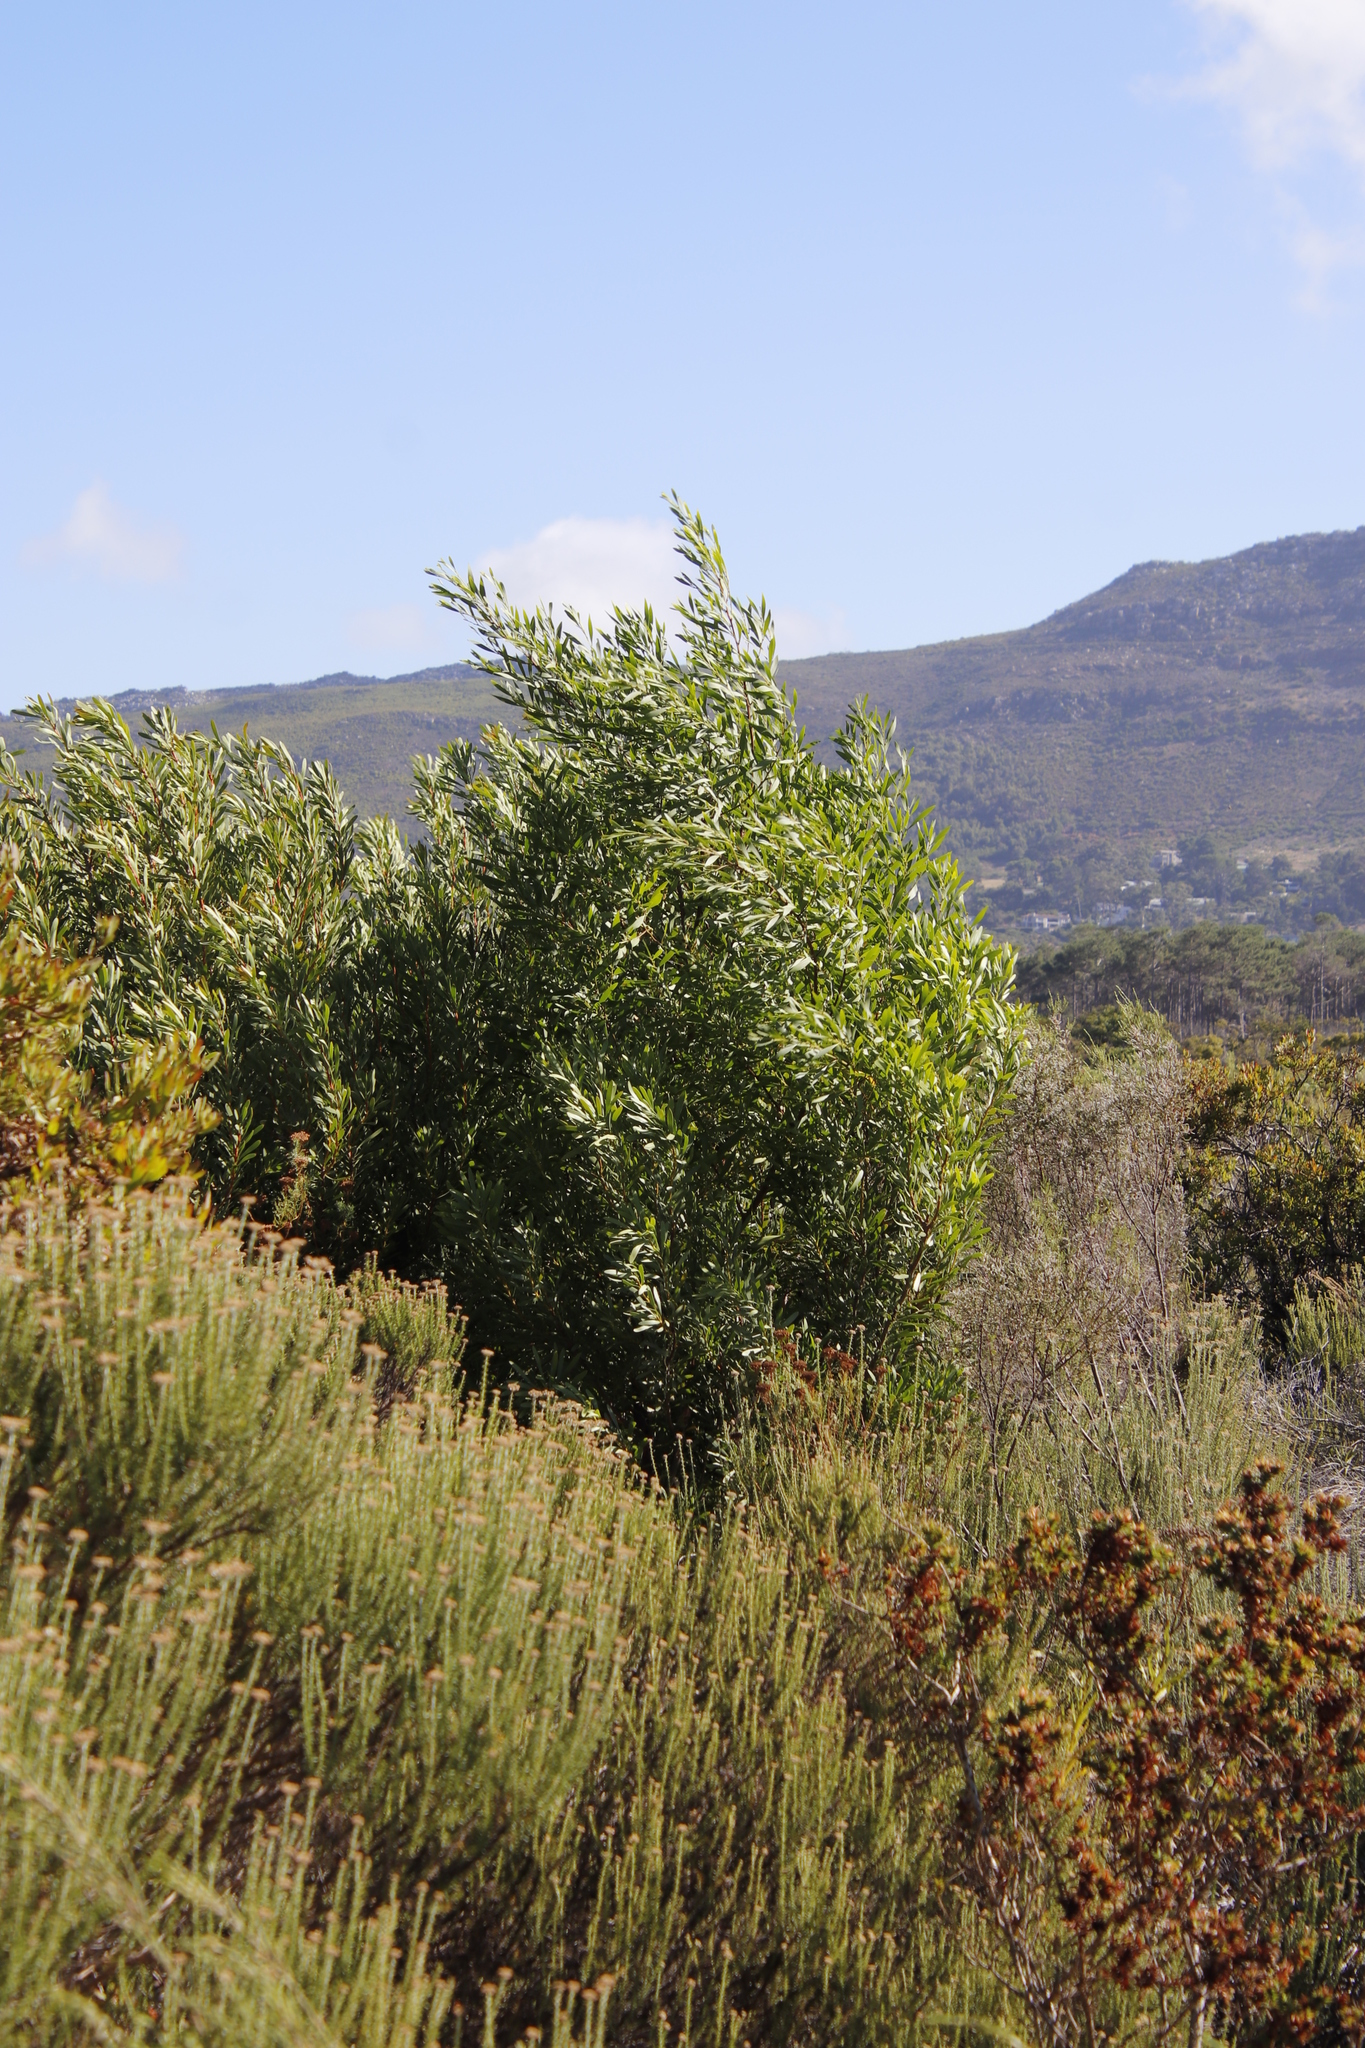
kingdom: Plantae
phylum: Tracheophyta
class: Magnoliopsida
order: Fabales
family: Fabaceae
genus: Acacia
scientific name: Acacia longifolia
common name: Sydney golden wattle
